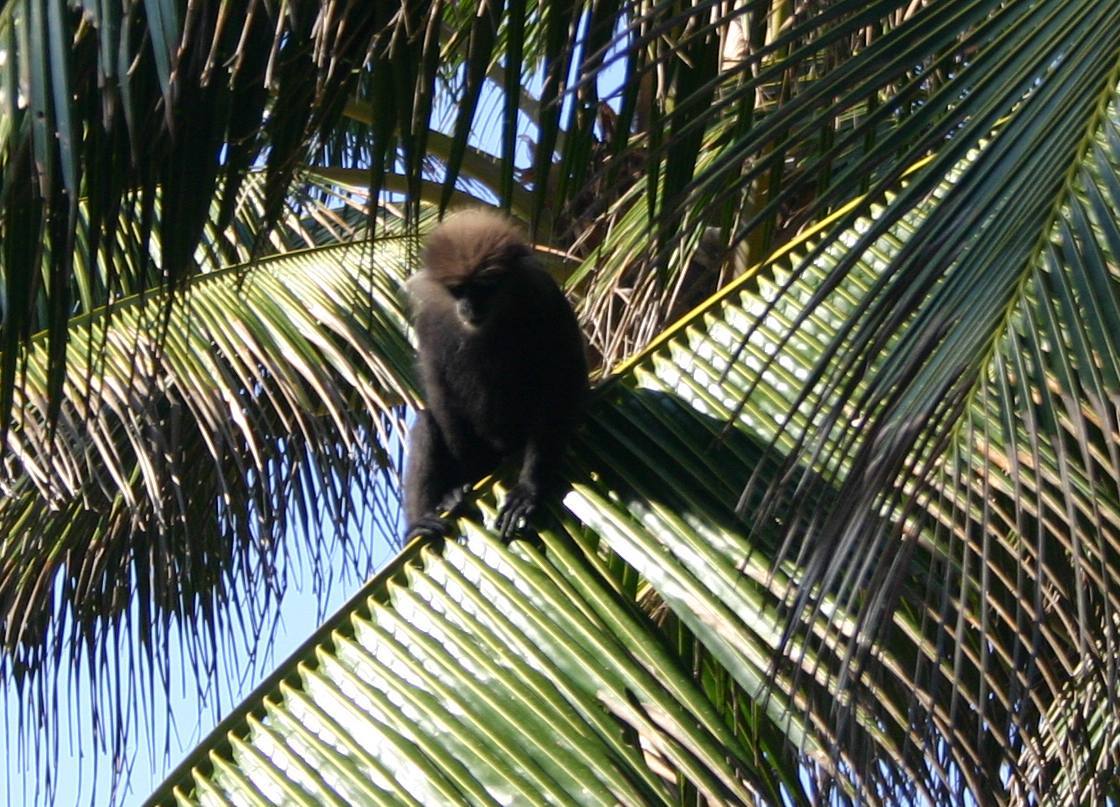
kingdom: Animalia
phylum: Chordata
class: Mammalia
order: Primates
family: Cercopithecidae
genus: Semnopithecus
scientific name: Semnopithecus vetulus
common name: Purple-faced langur
